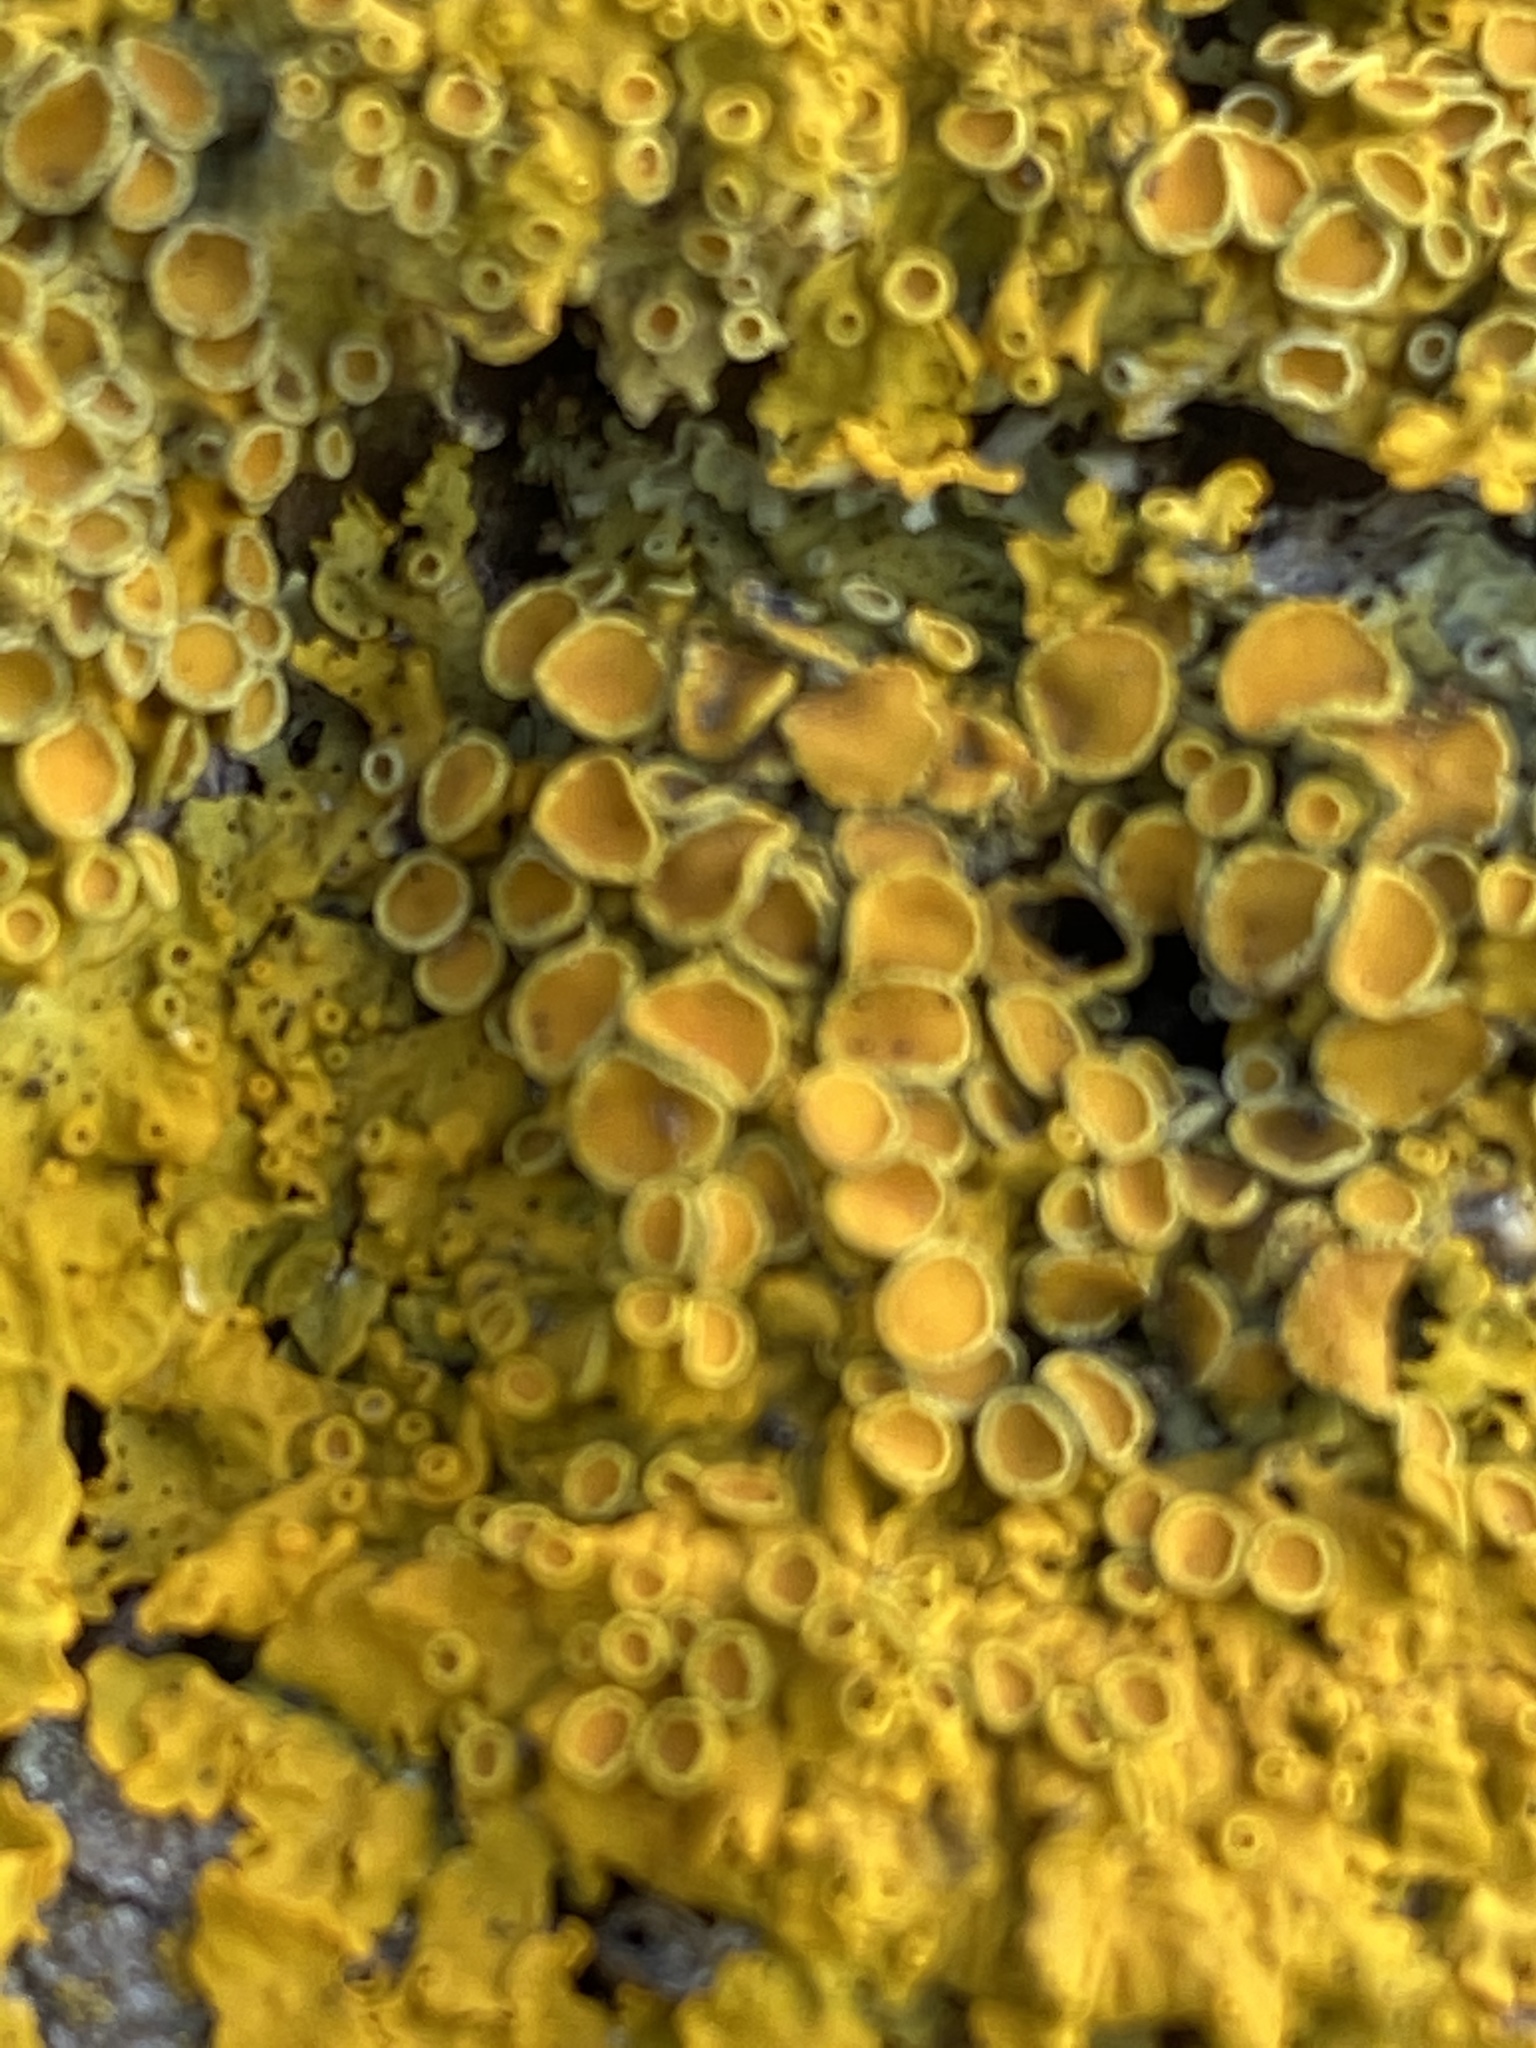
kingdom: Fungi
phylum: Ascomycota
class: Lecanoromycetes
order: Teloschistales
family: Teloschistaceae
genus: Xanthoria
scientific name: Xanthoria parietina
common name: Common orange lichen
